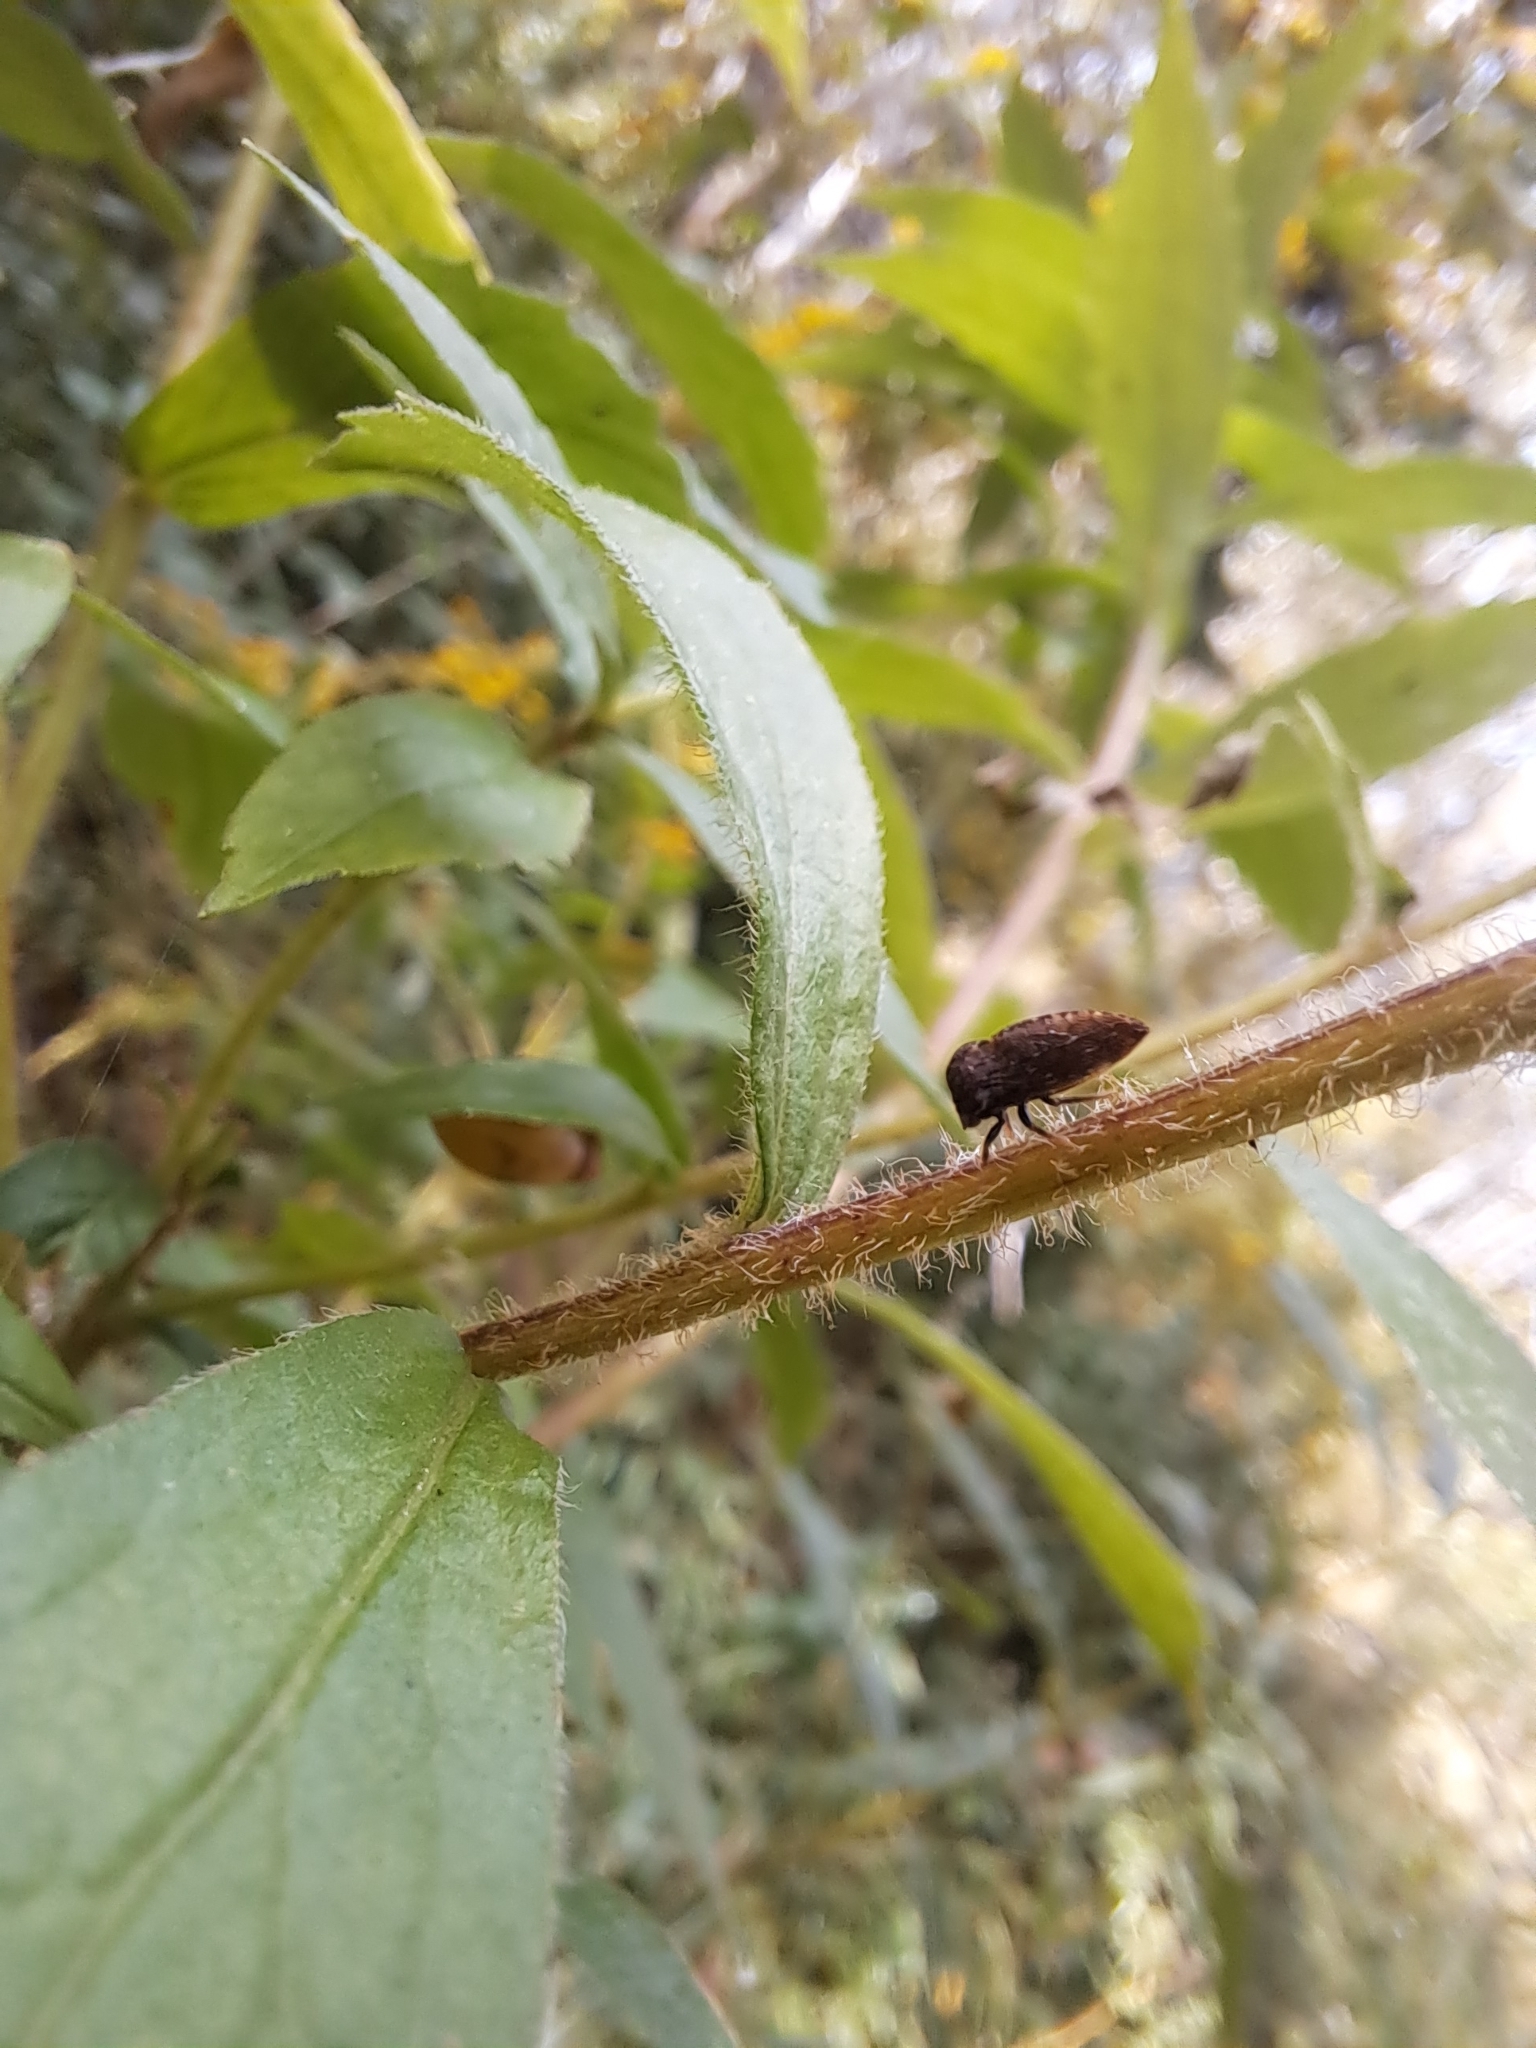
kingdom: Animalia
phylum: Arthropoda
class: Insecta
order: Hemiptera
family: Membracidae
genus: Publilia
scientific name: Publilia concava
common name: Aster treehopper
